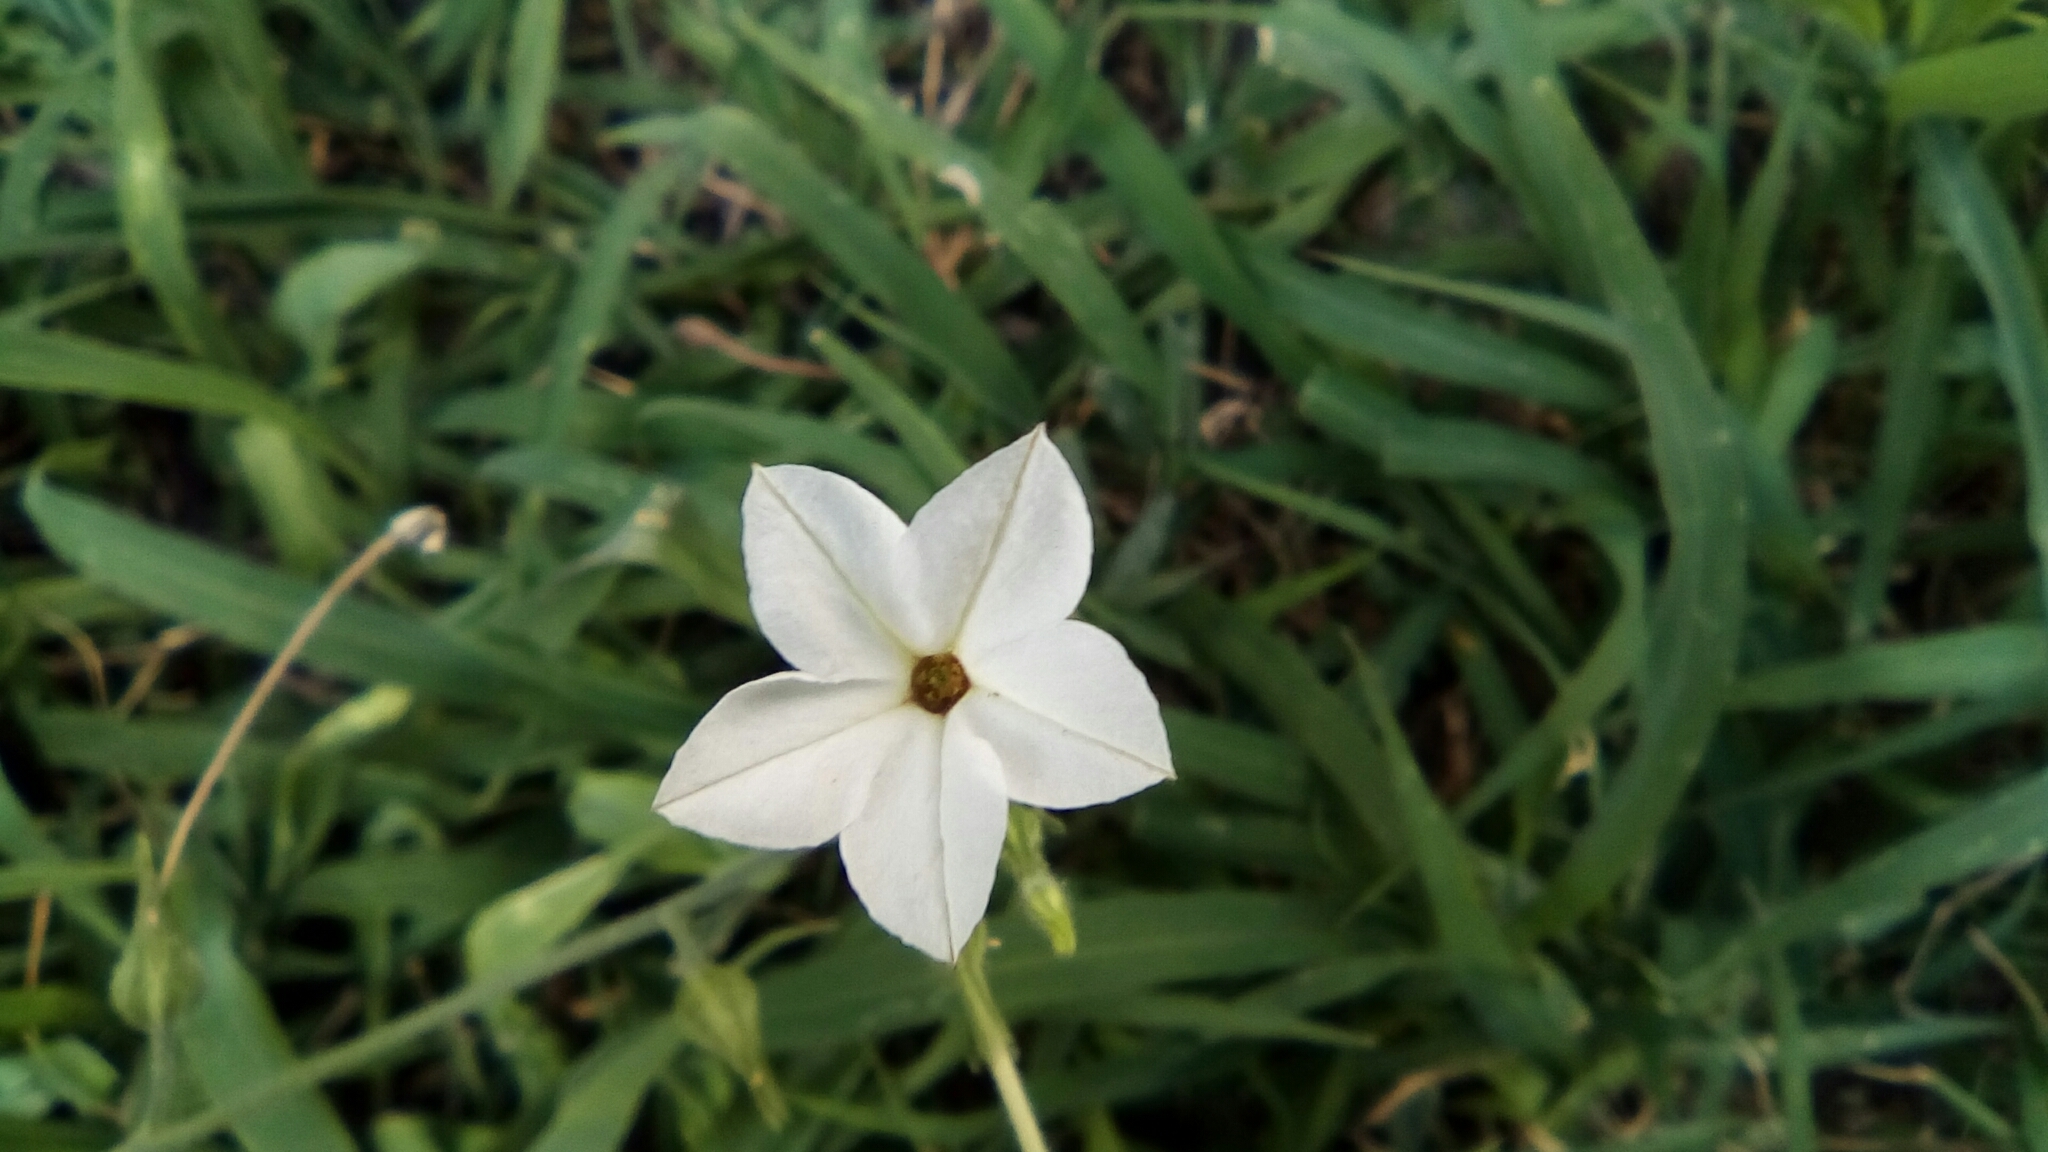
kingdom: Plantae
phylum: Tracheophyta
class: Magnoliopsida
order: Solanales
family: Solanaceae
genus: Nicotiana
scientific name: Nicotiana repanda
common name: Fiddle-leaf tobacco
